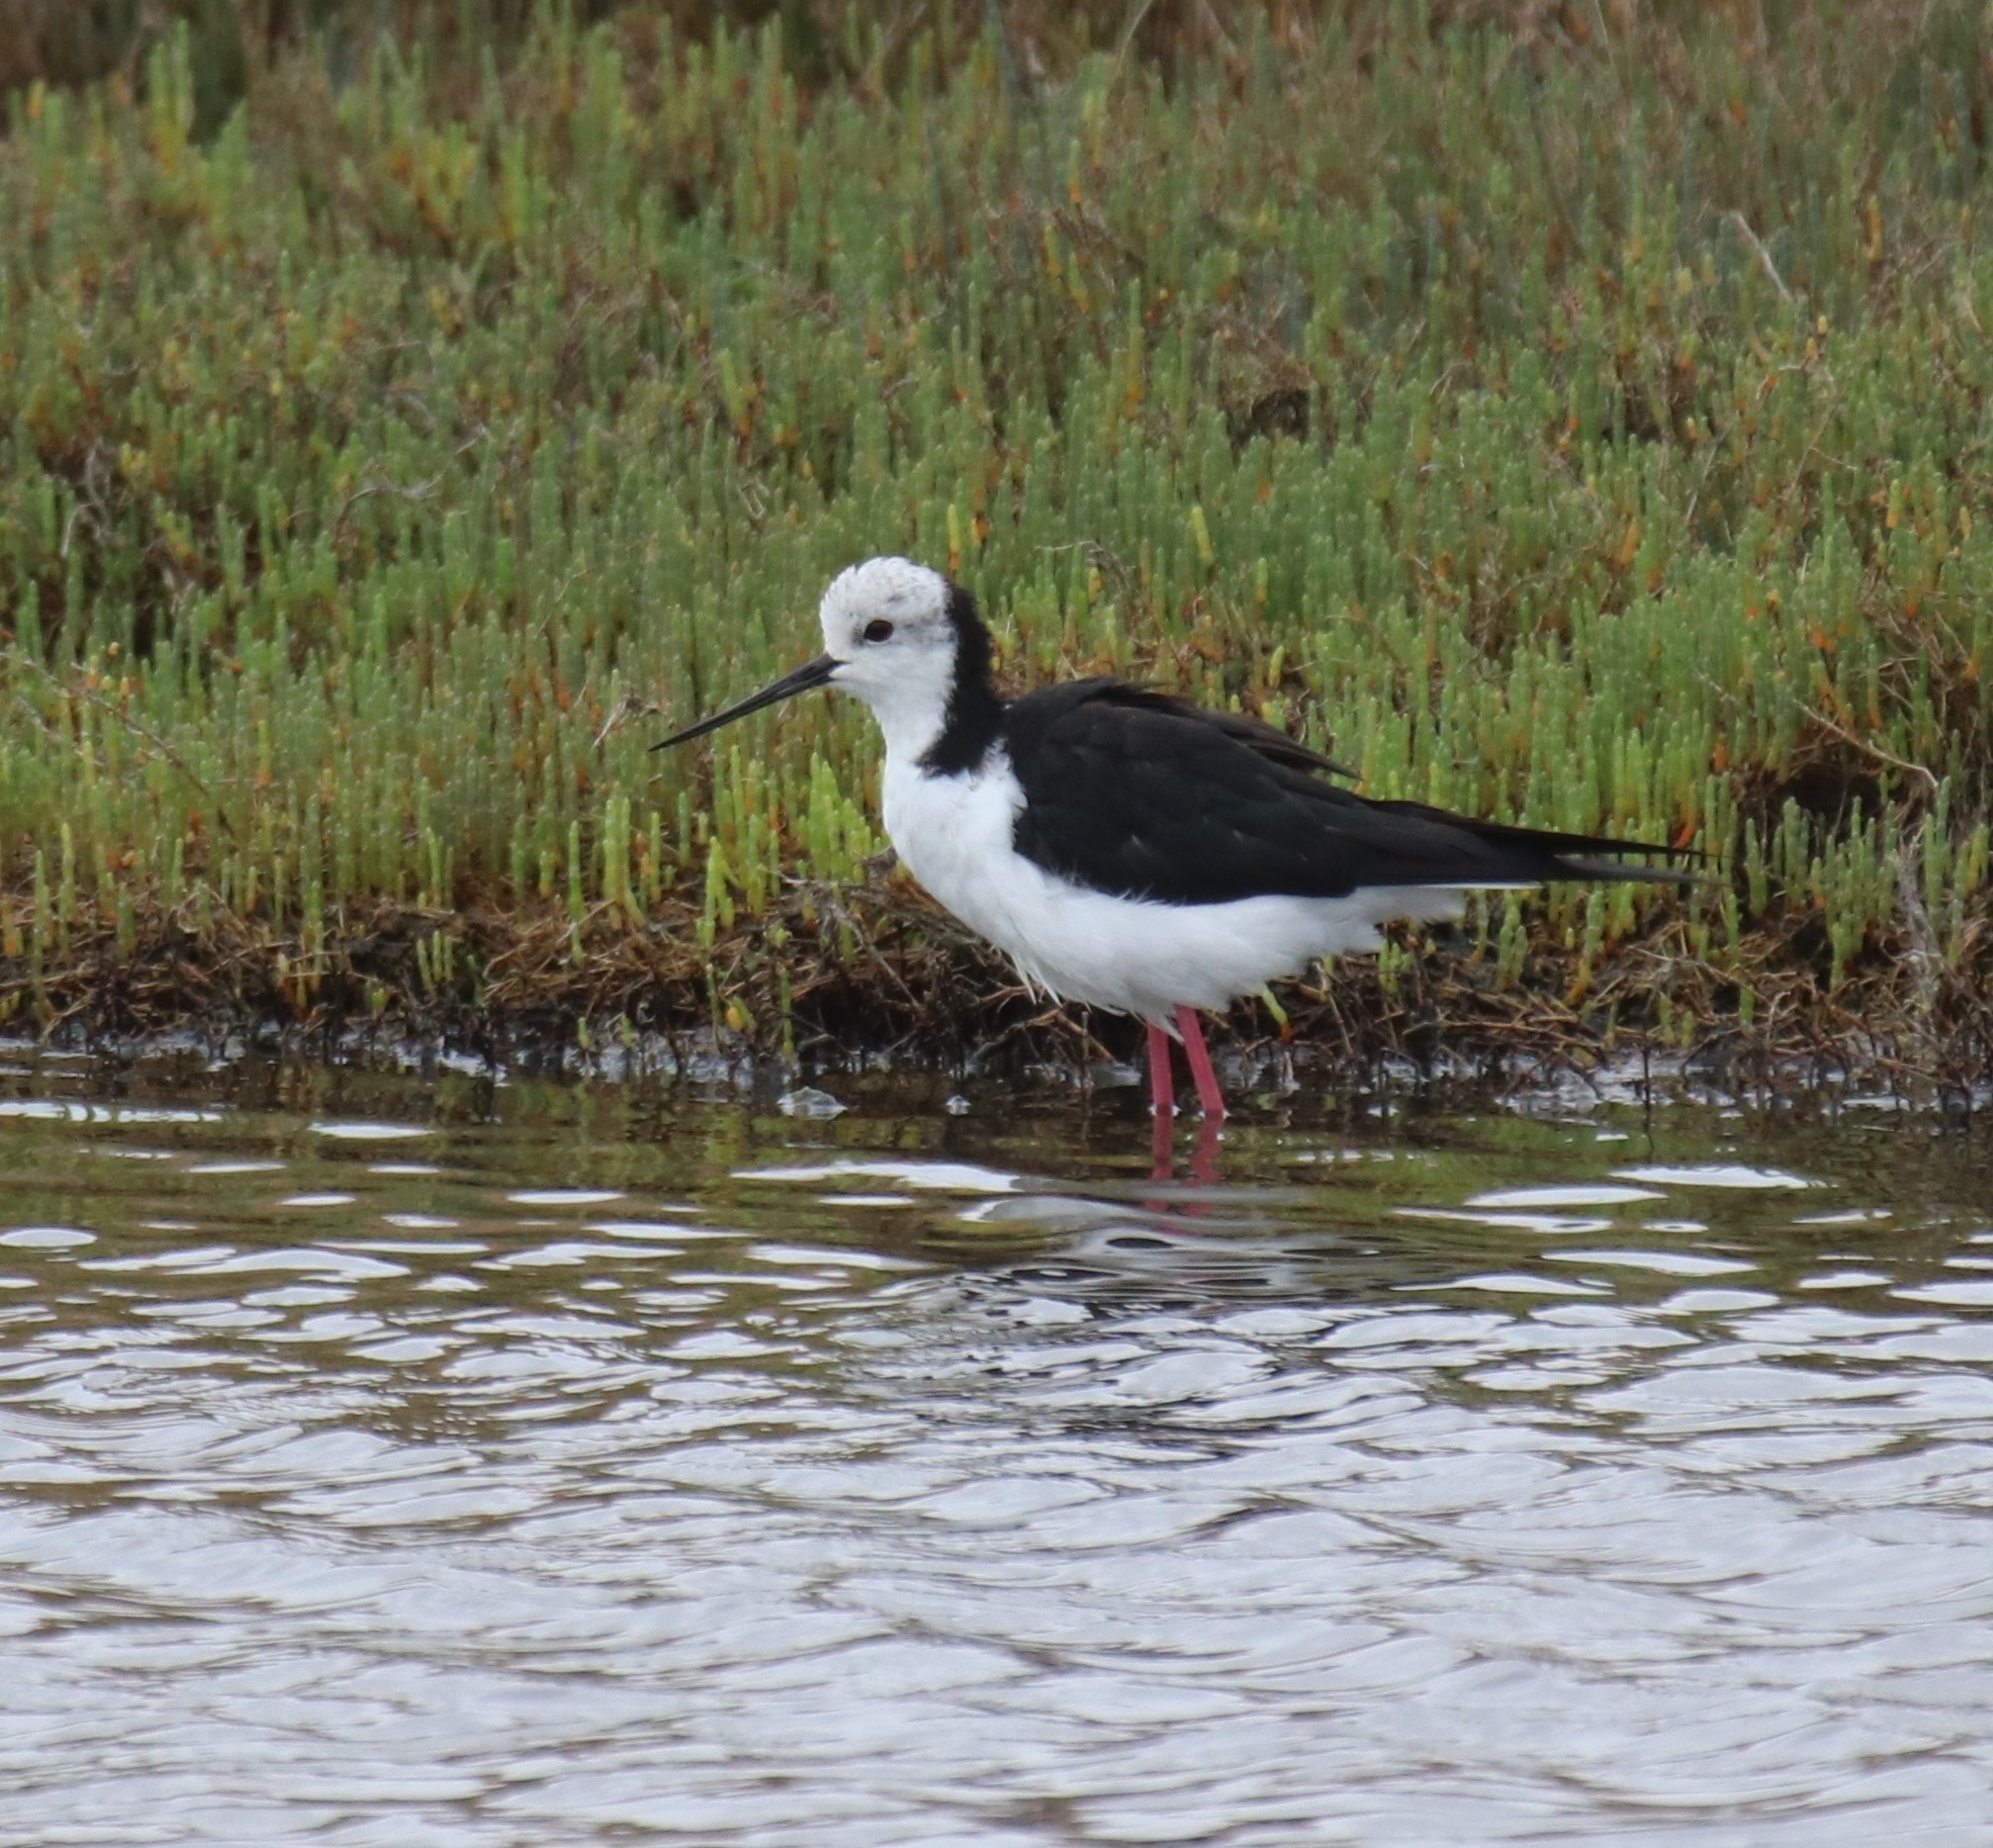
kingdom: Animalia
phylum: Chordata
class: Aves
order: Charadriiformes
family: Recurvirostridae
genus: Himantopus
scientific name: Himantopus leucocephalus
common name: White-headed stilt
